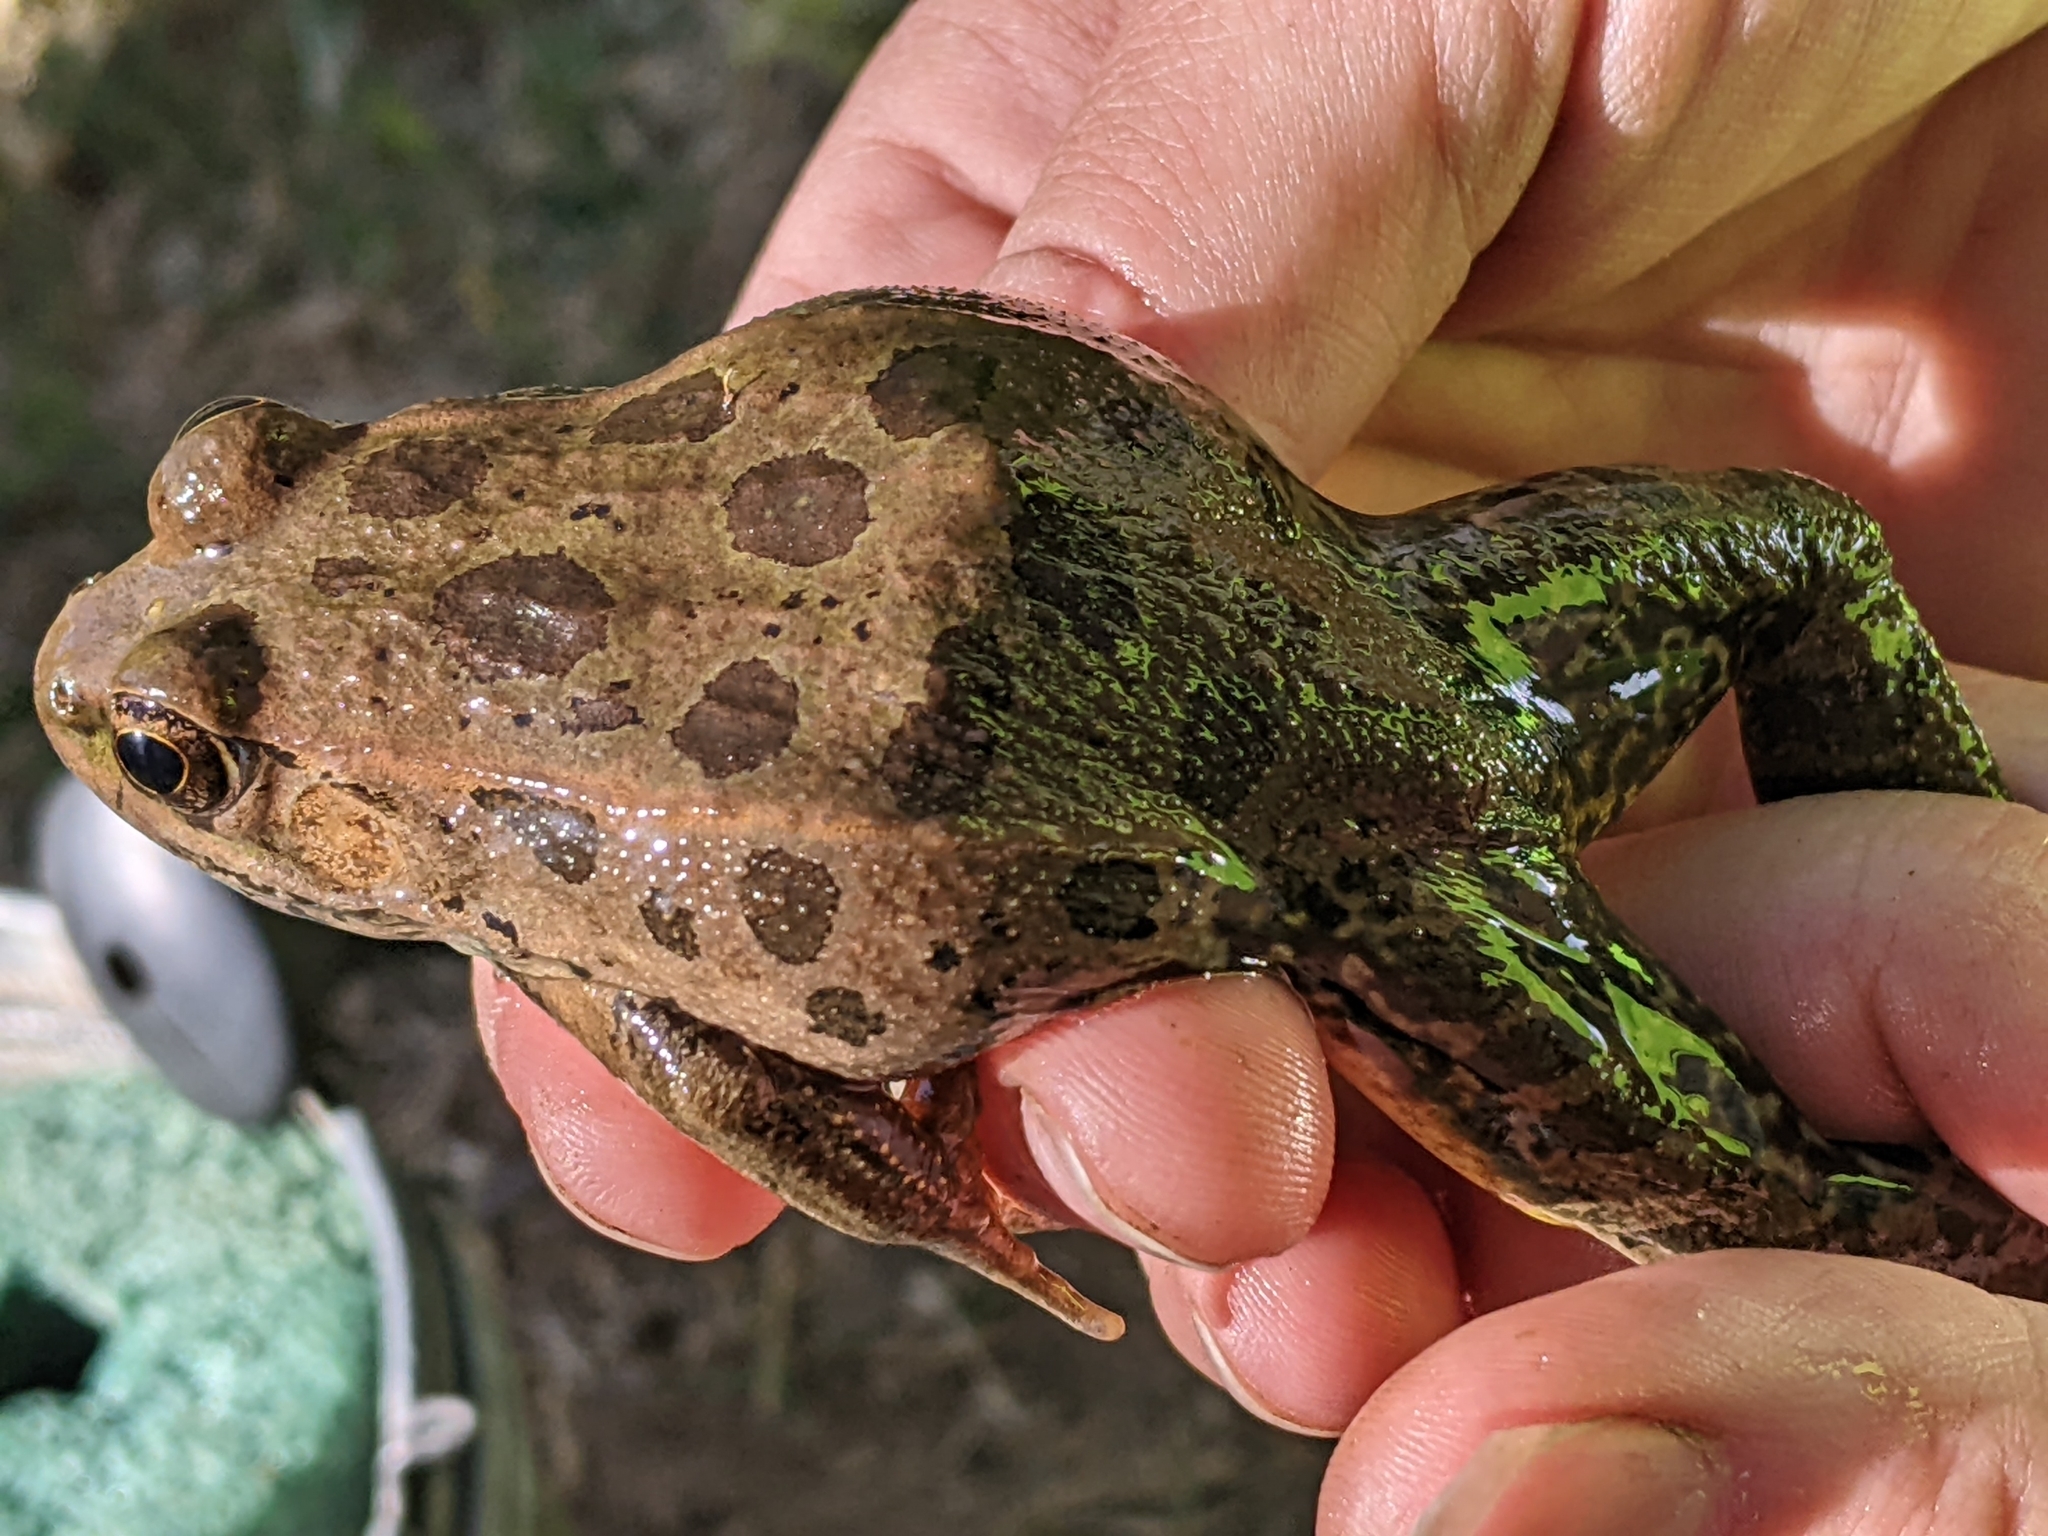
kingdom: Animalia
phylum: Chordata
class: Amphibia
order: Anura
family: Ranidae
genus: Lithobates
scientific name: Lithobates yavapaiensis
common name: Lowland leopard frog
